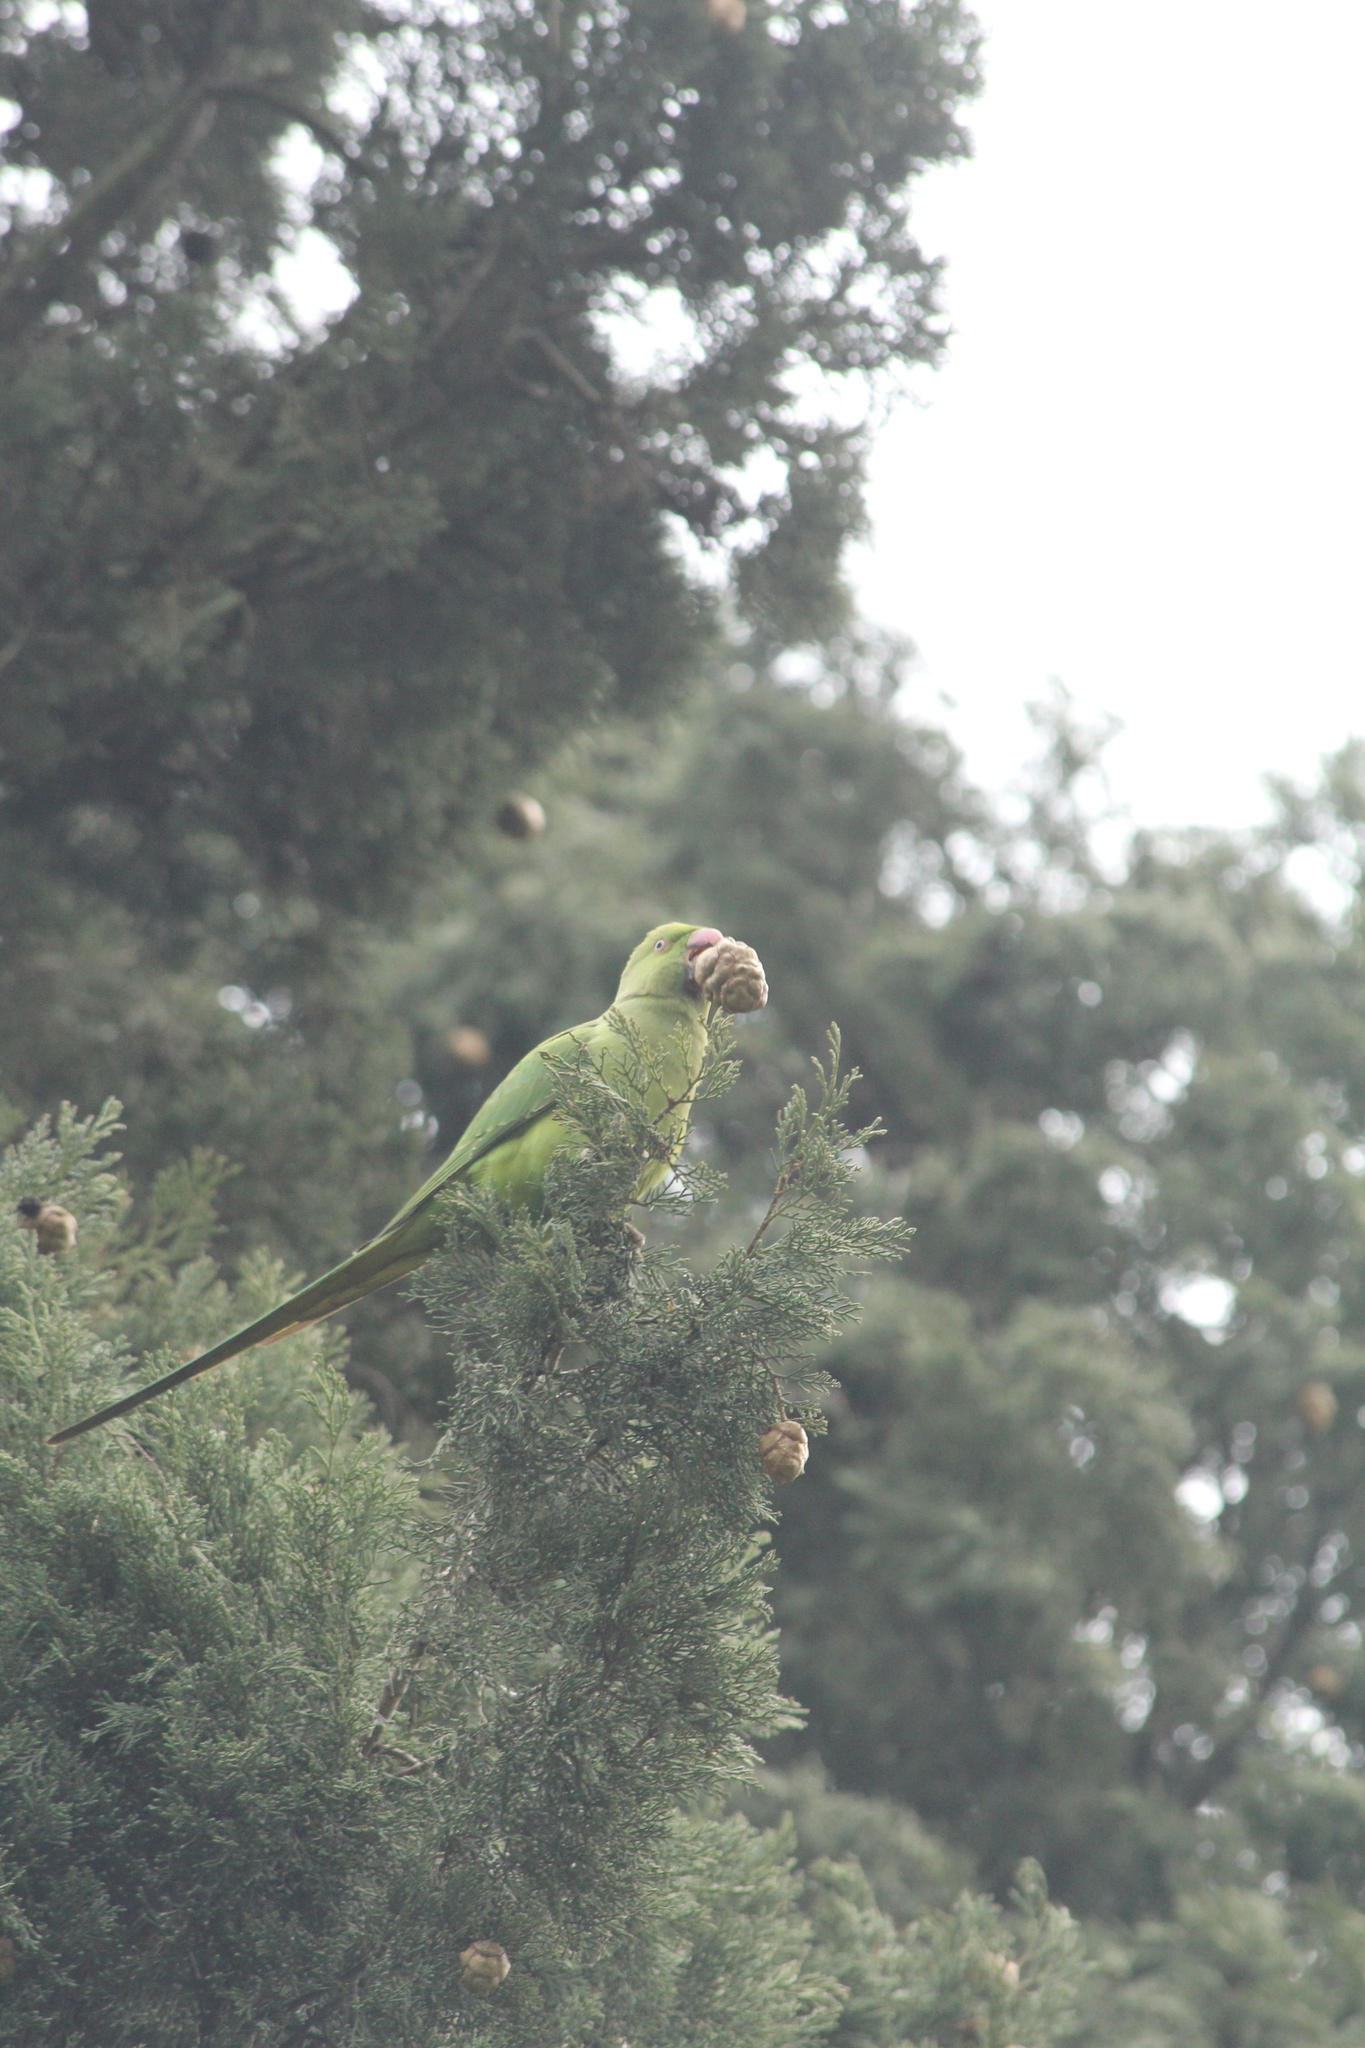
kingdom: Animalia
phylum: Chordata
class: Aves
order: Psittaciformes
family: Psittacidae
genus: Psittacula
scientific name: Psittacula krameri
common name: Rose-ringed parakeet
